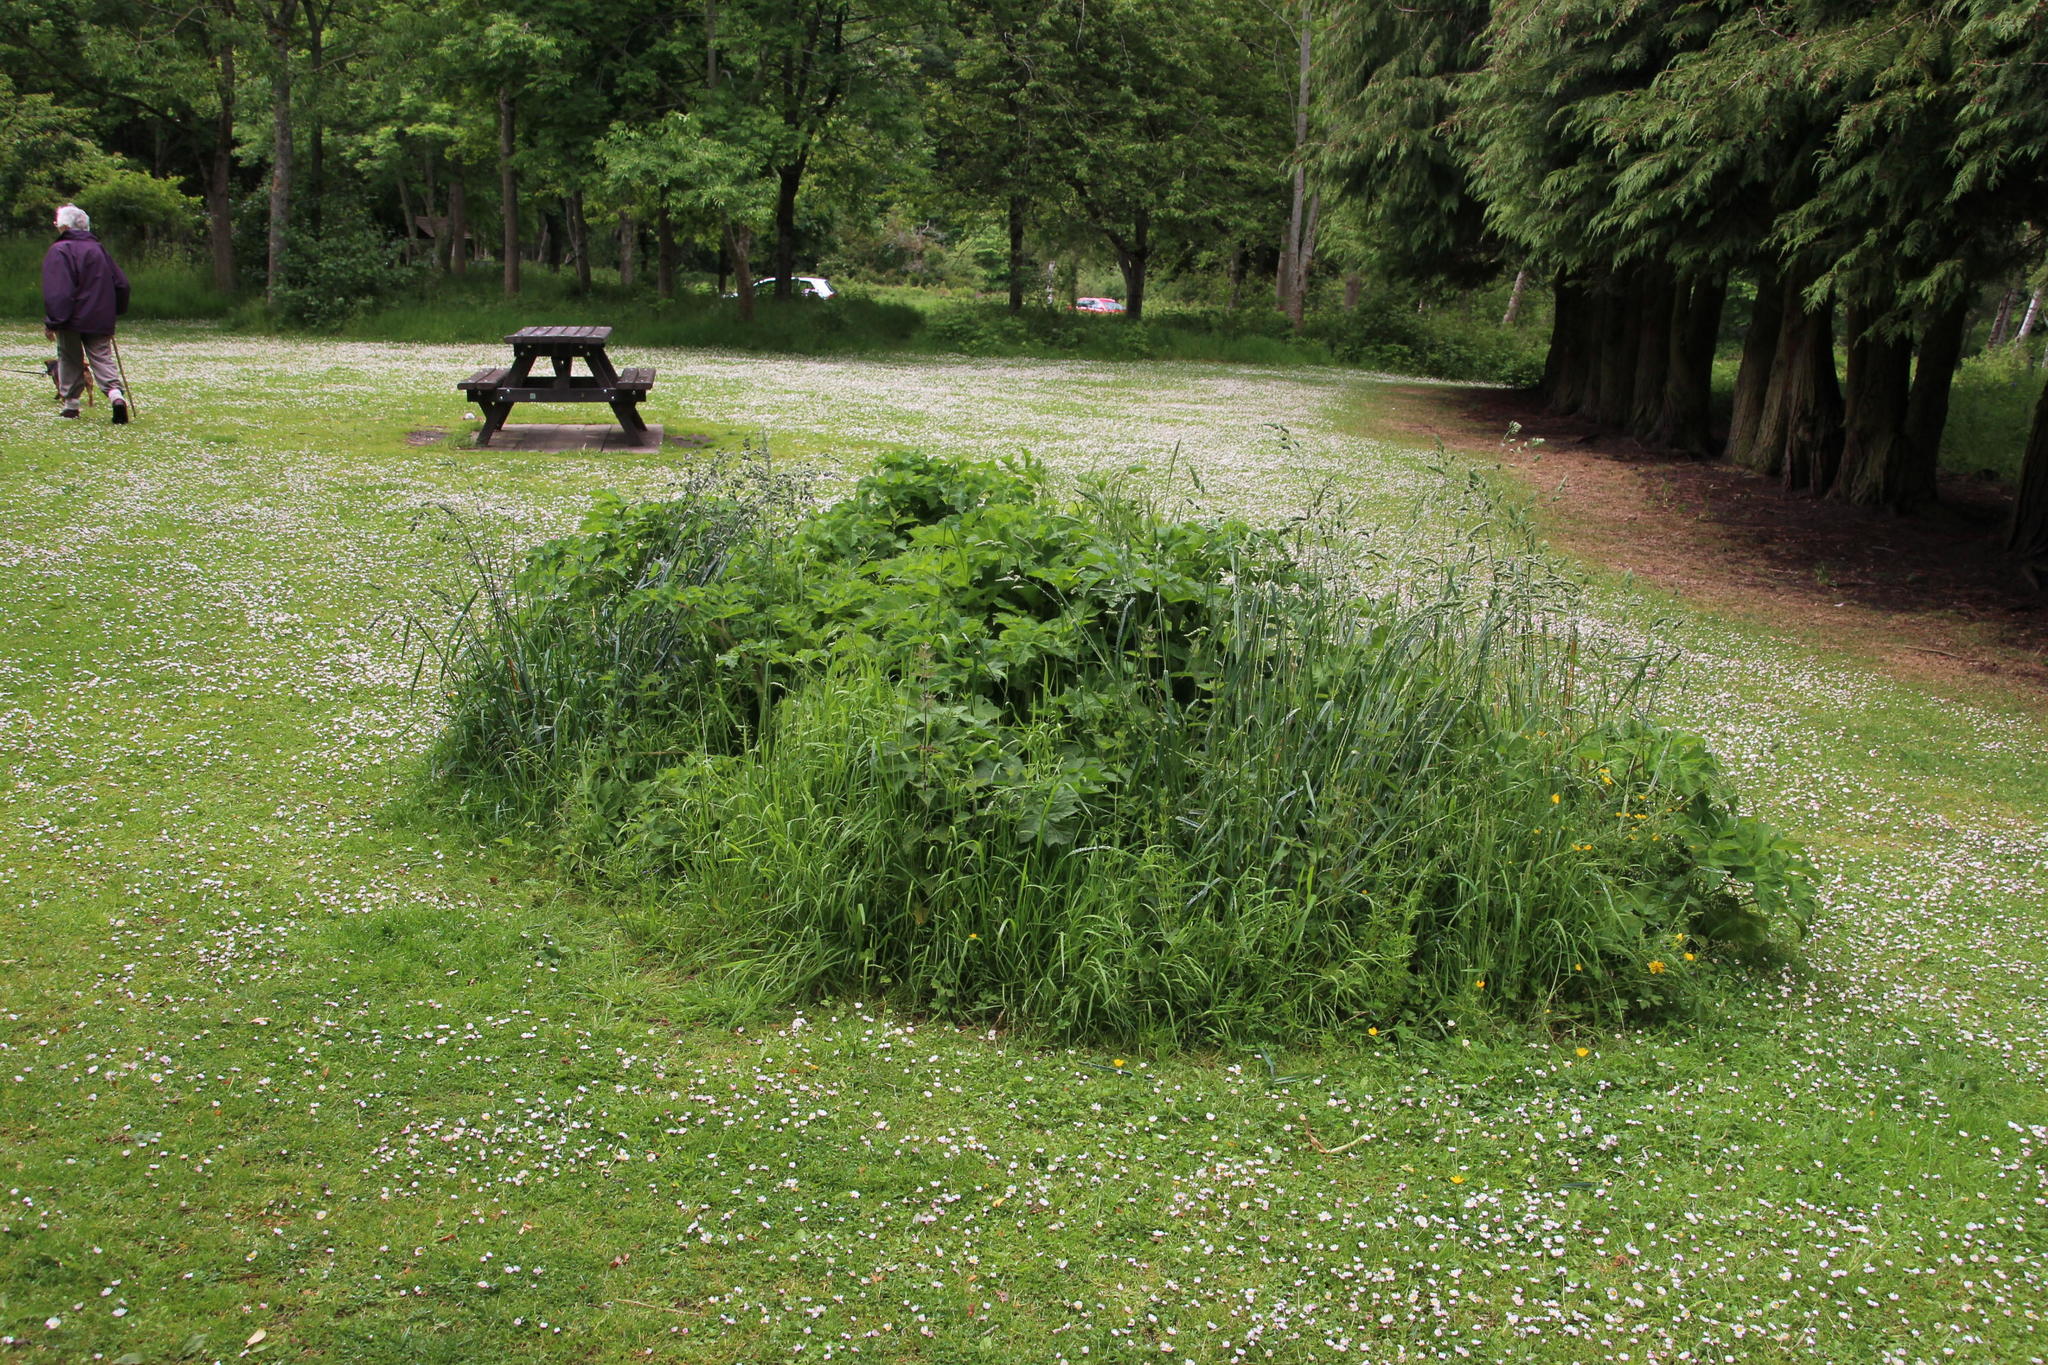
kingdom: Plantae
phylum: Tracheophyta
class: Liliopsida
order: Poales
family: Poaceae
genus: Dactylis
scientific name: Dactylis glomerata
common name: Orchardgrass
